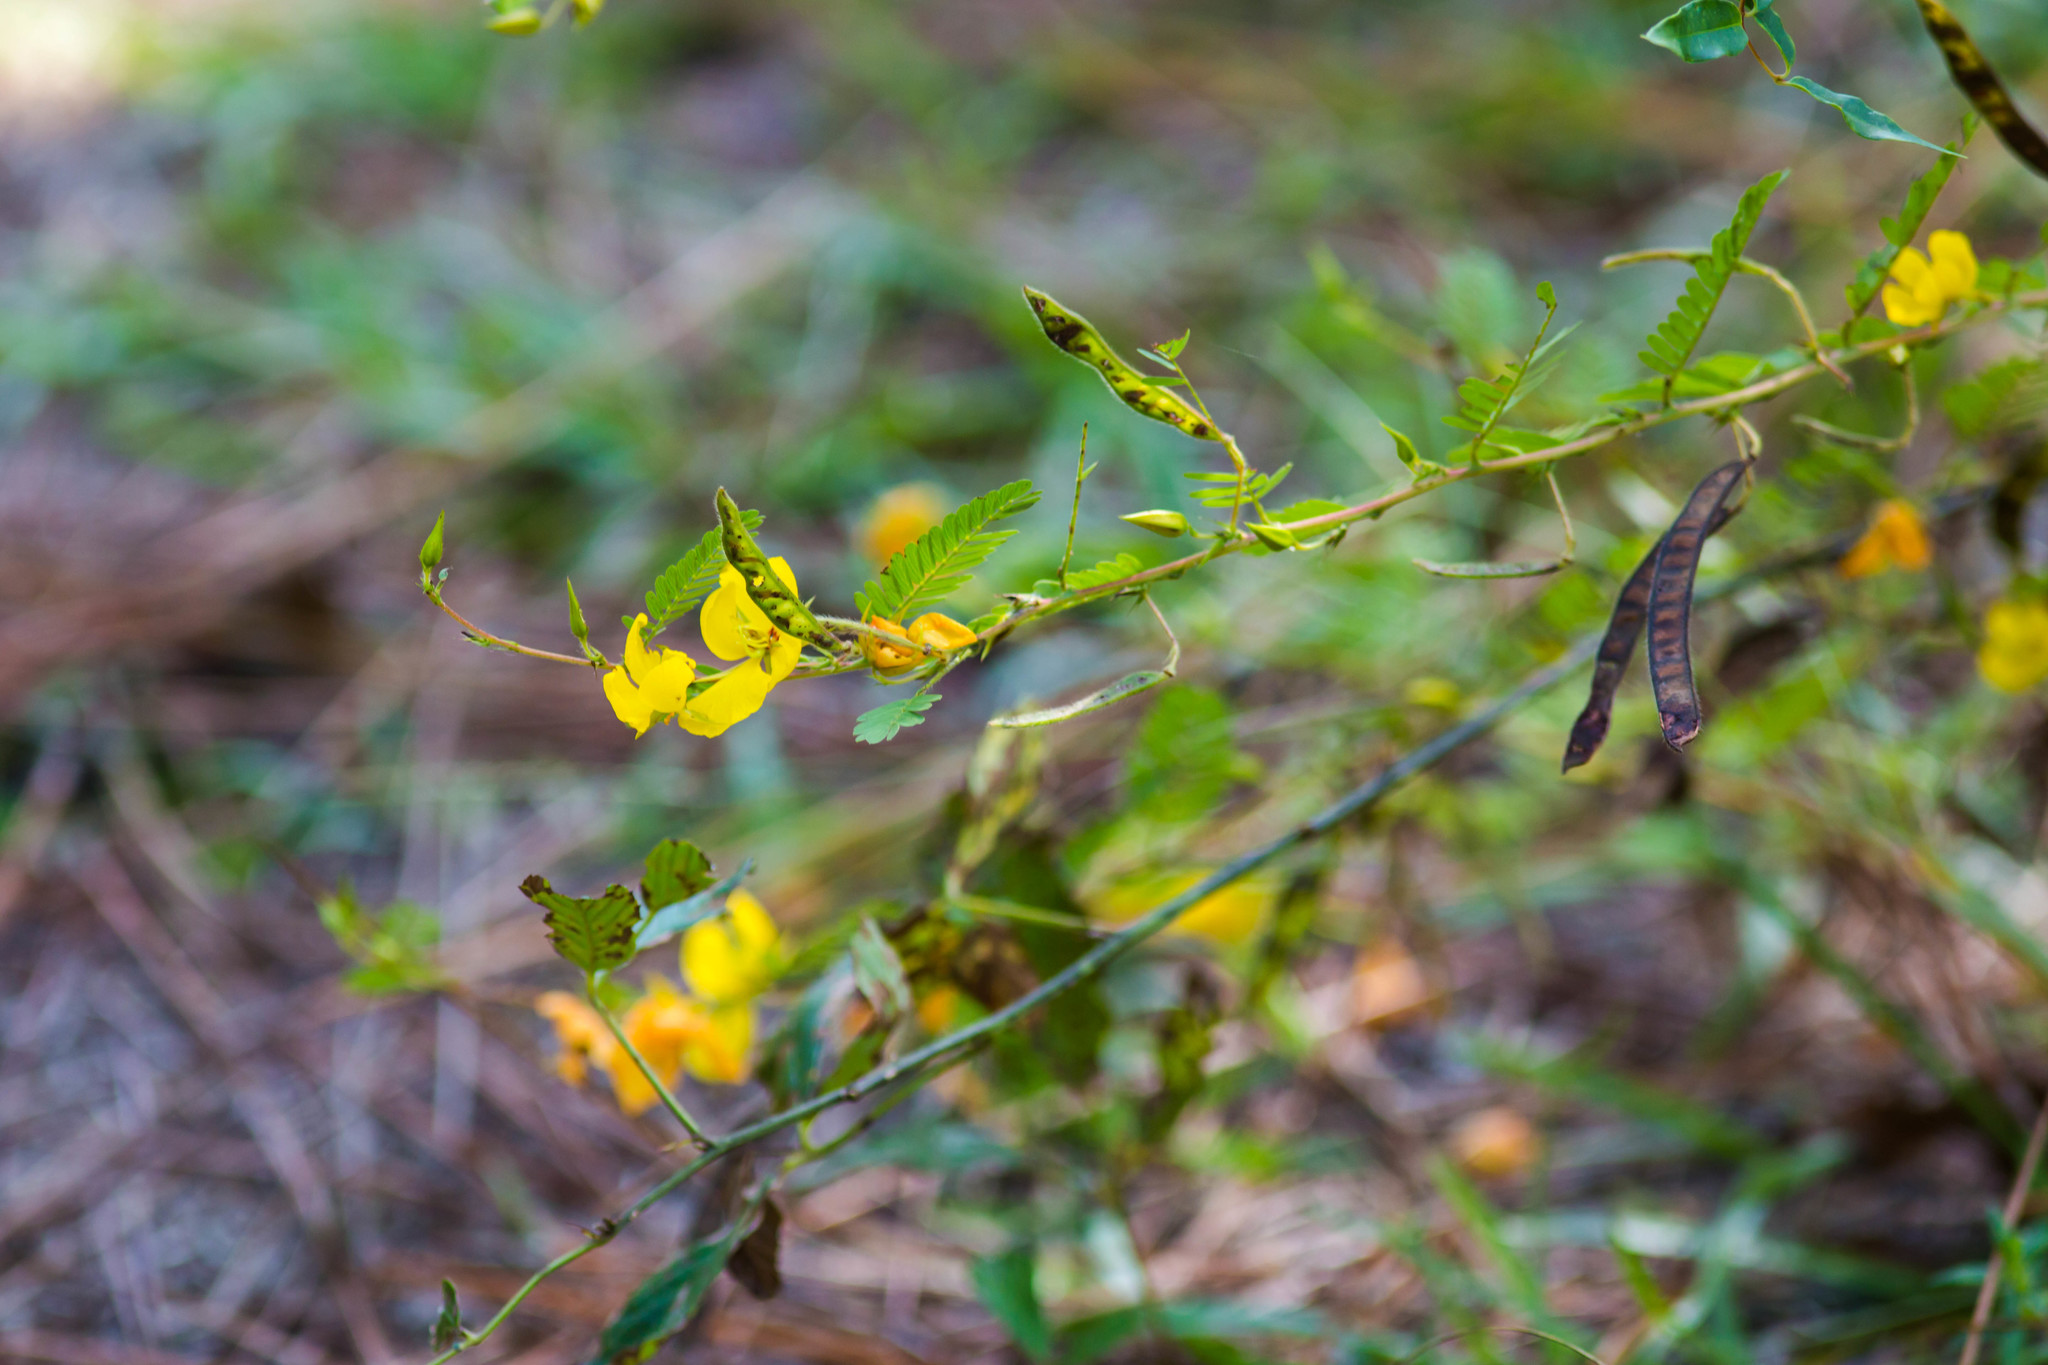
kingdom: Plantae
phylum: Tracheophyta
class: Magnoliopsida
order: Fabales
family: Fabaceae
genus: Chamaecrista
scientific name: Chamaecrista fasciculata
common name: Golden cassia
